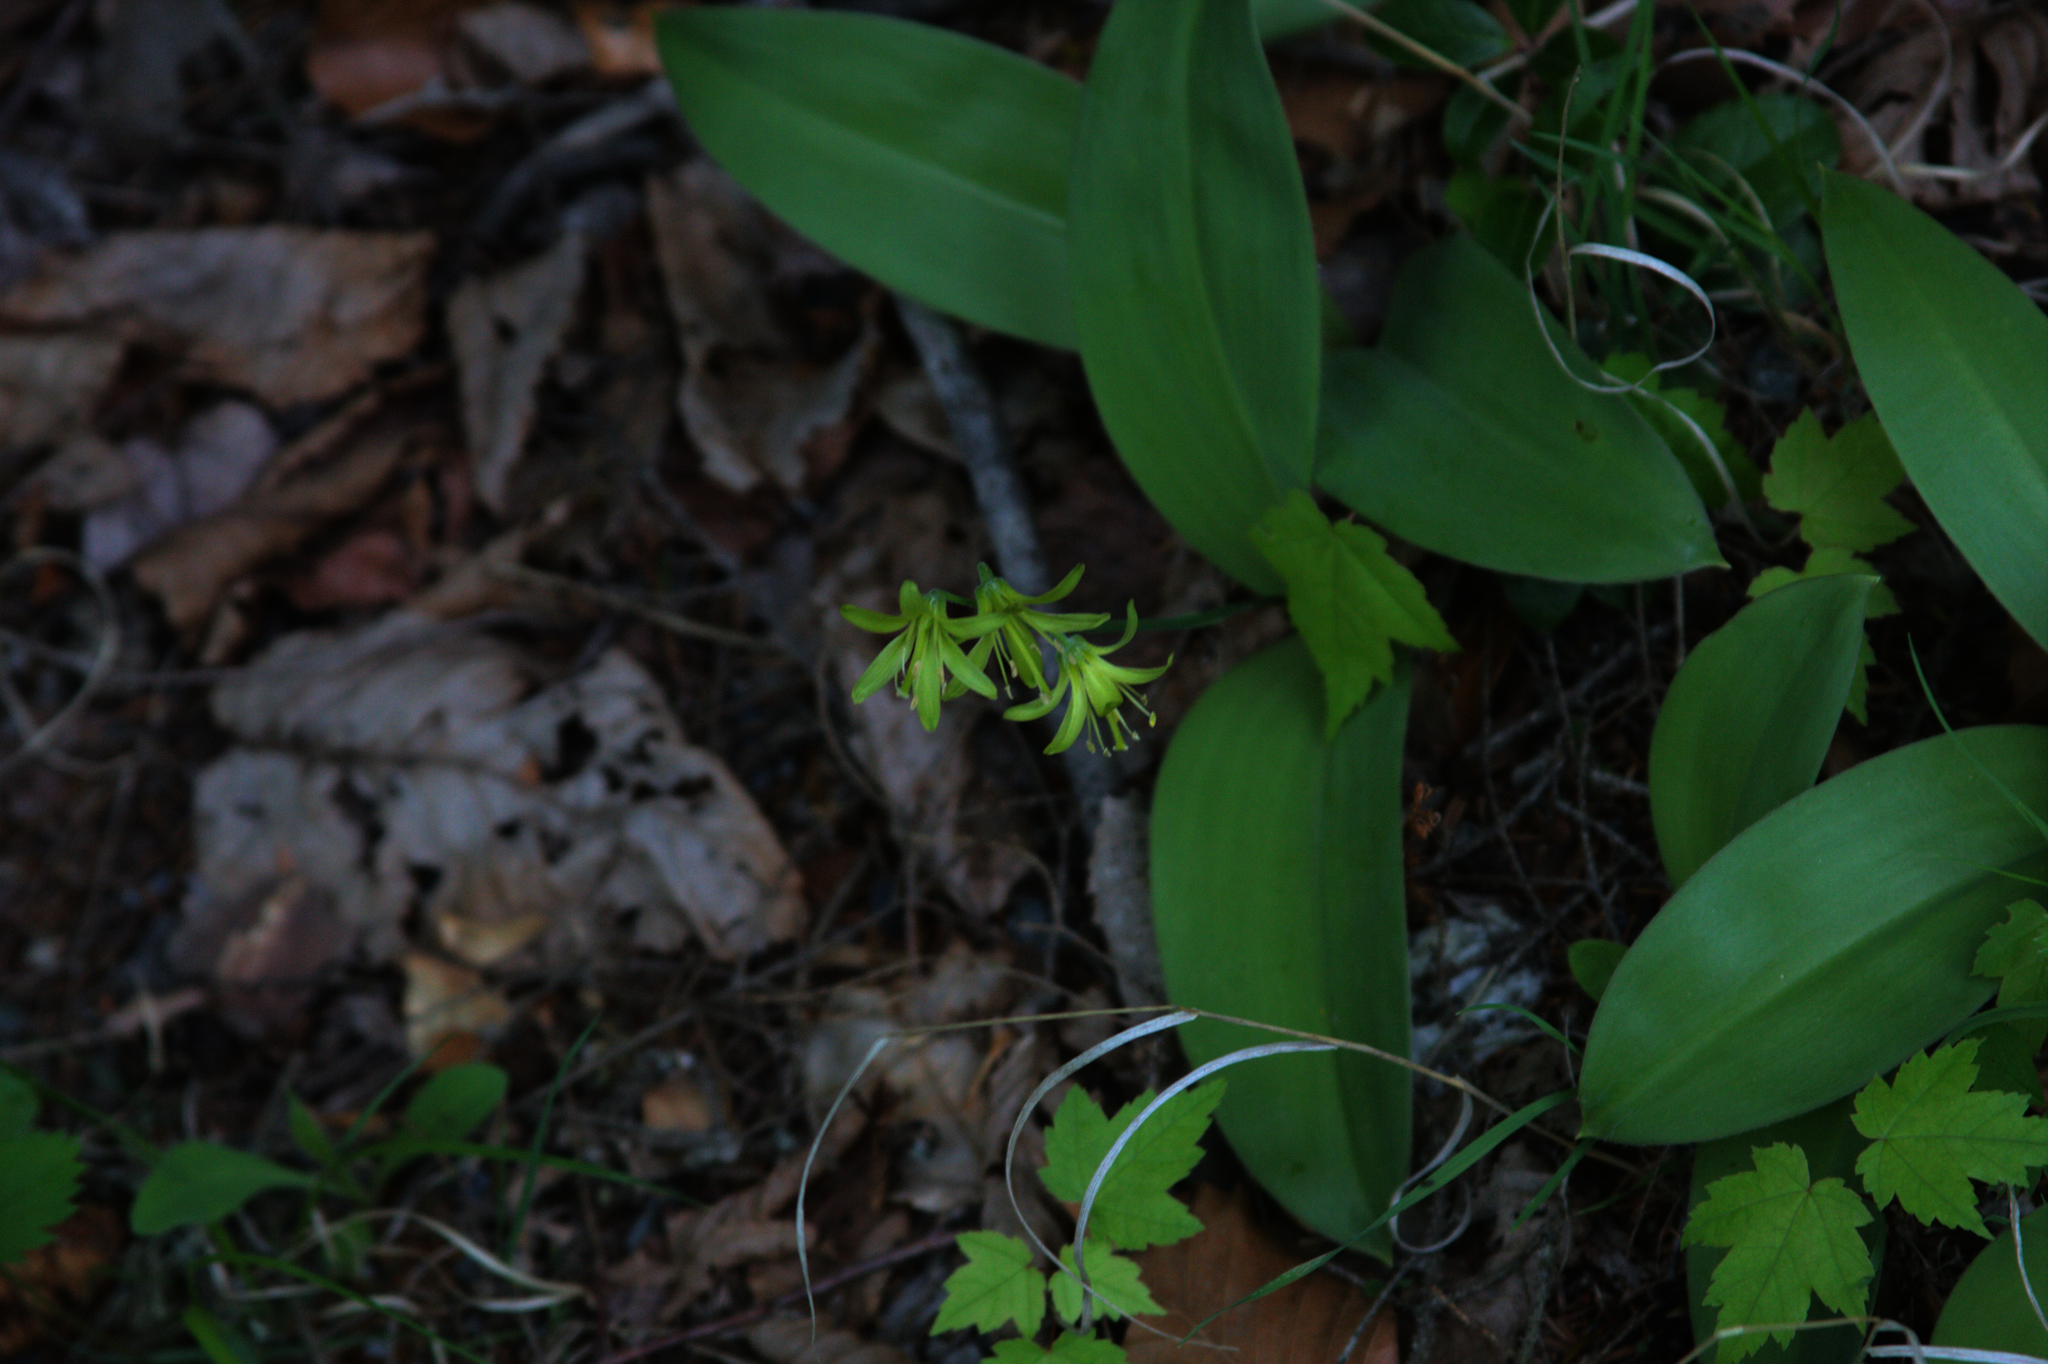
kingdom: Plantae
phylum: Tracheophyta
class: Liliopsida
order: Liliales
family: Liliaceae
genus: Clintonia
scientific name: Clintonia borealis
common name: Yellow clintonia
